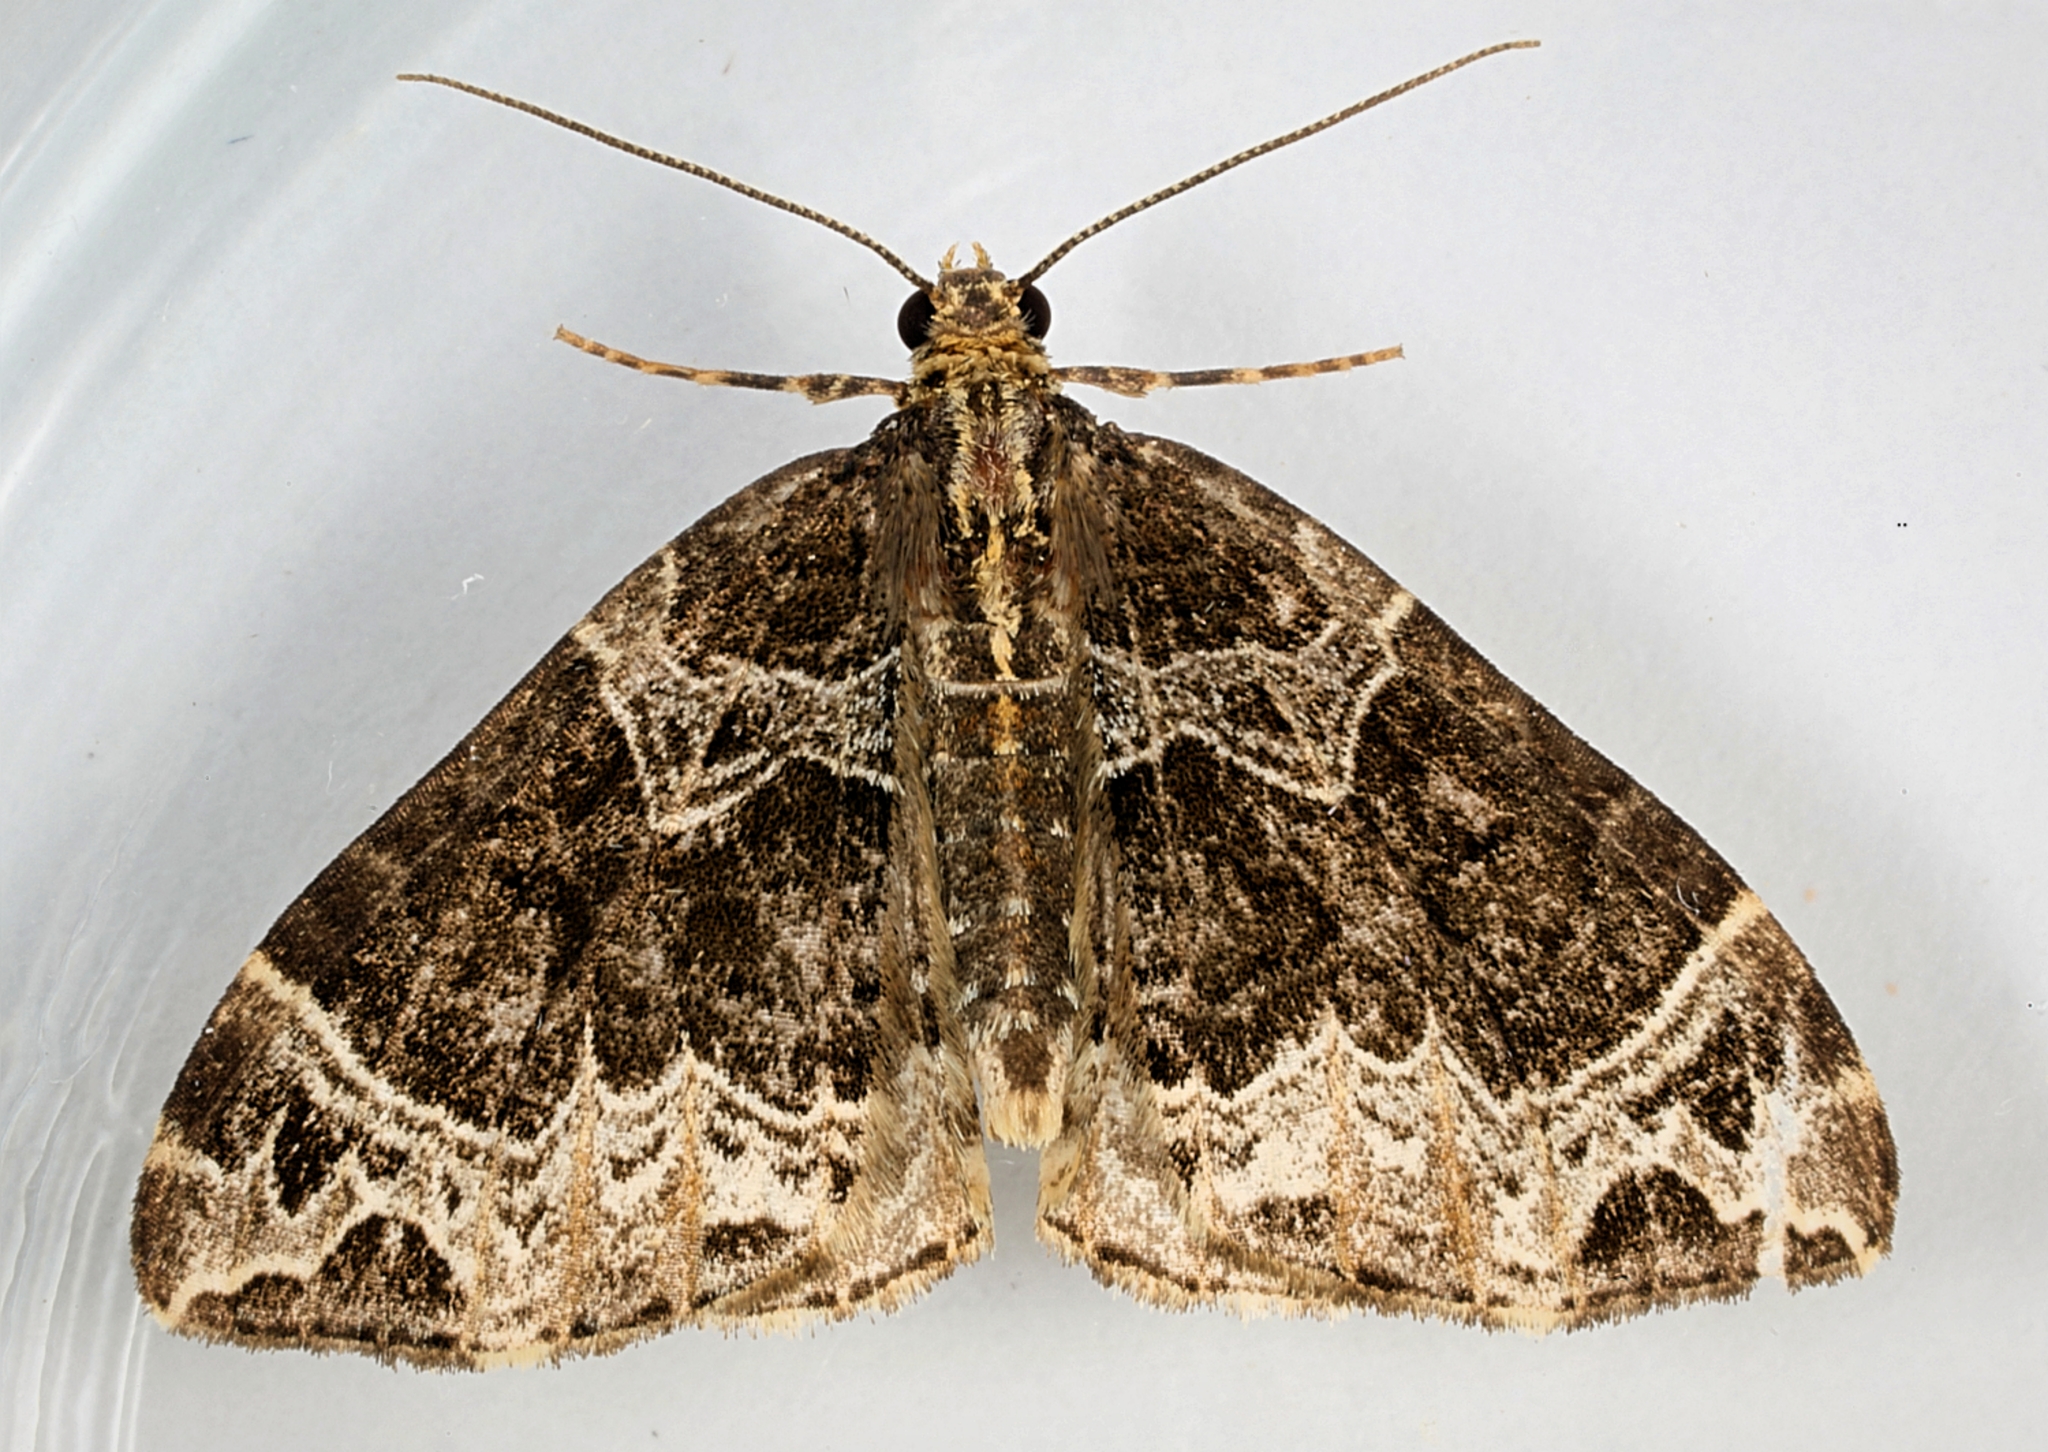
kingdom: Animalia
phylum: Arthropoda
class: Insecta
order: Lepidoptera
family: Geometridae
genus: Ecliptopera
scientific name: Ecliptopera silaceata
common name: Small phoenix
